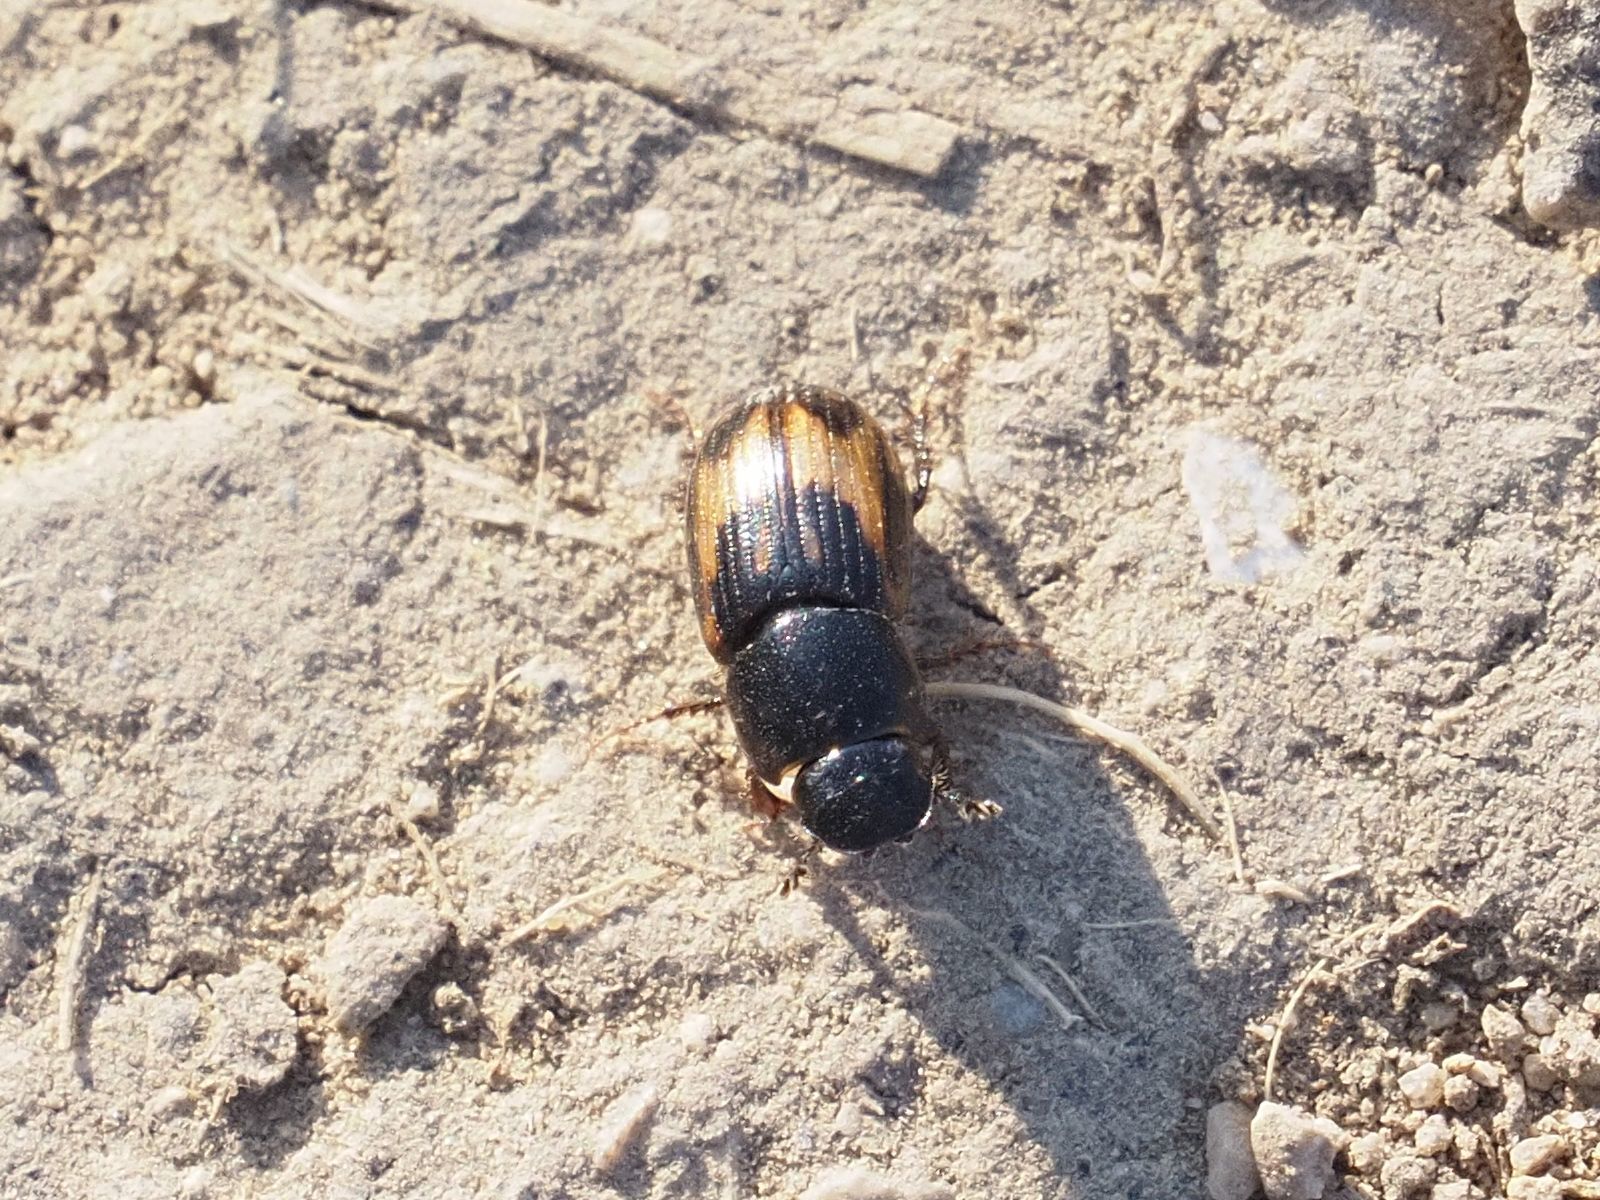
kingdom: Animalia
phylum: Arthropoda
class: Insecta
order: Coleoptera
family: Scarabaeidae
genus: Chilothorax
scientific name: Chilothorax distinctus
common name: Maculated dung beetle
